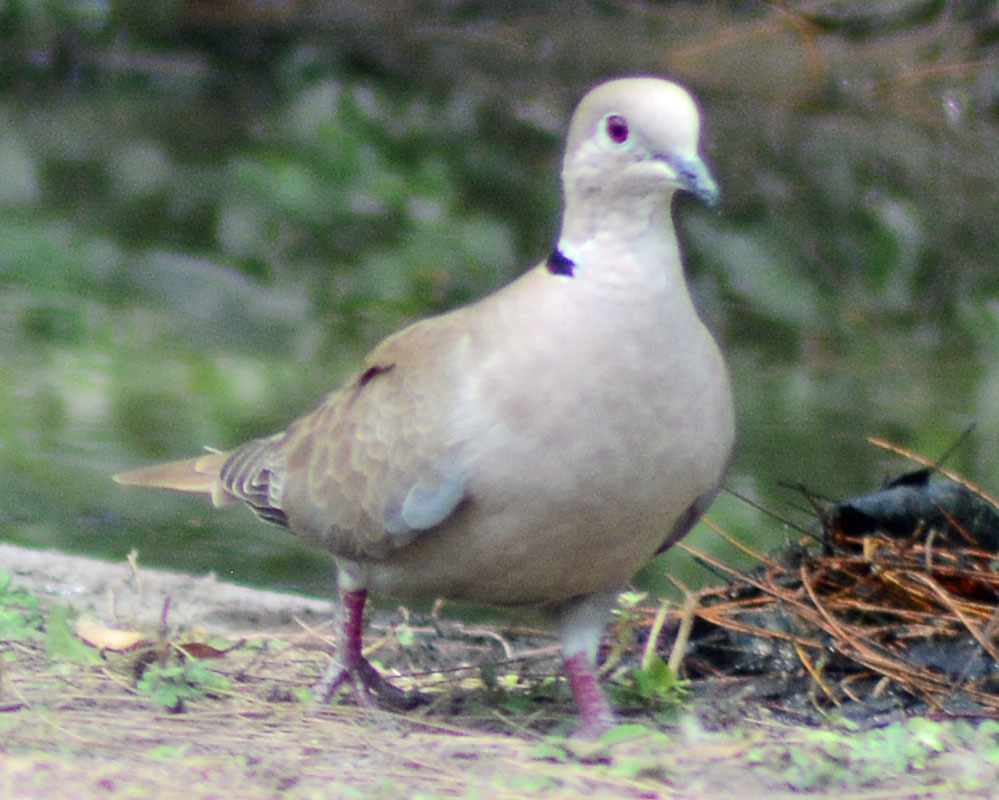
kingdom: Animalia
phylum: Chordata
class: Aves
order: Columbiformes
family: Columbidae
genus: Streptopelia
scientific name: Streptopelia decaocto
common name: Eurasian collared dove
